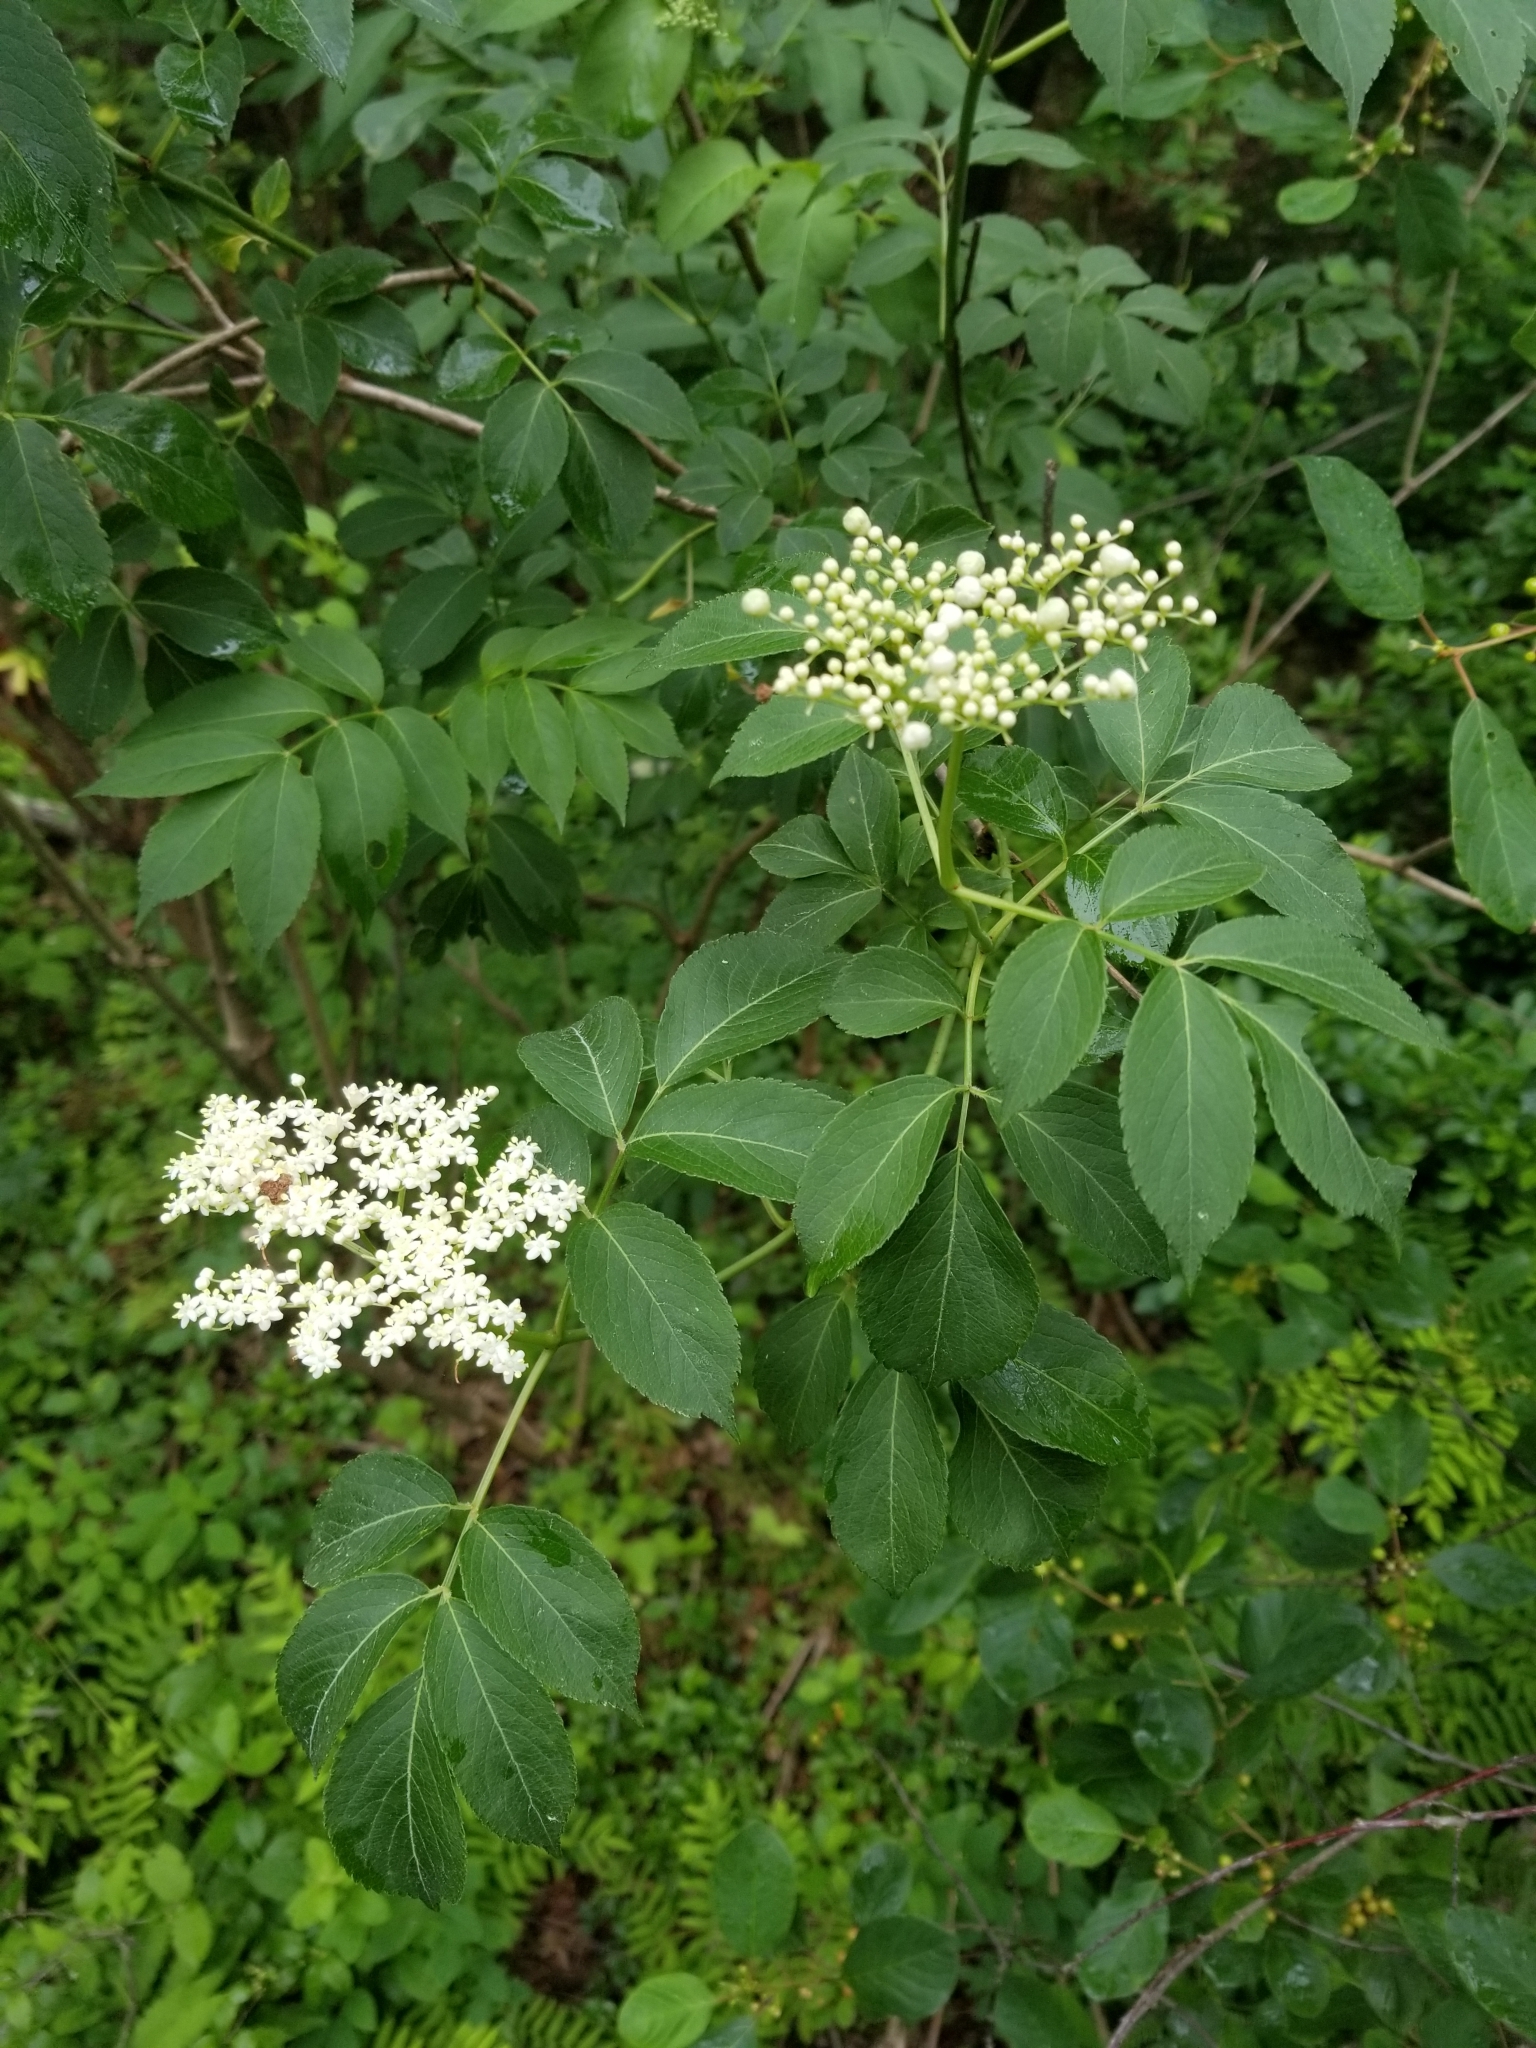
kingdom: Plantae
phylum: Tracheophyta
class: Magnoliopsida
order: Dipsacales
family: Viburnaceae
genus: Sambucus
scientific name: Sambucus canadensis
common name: American elder
